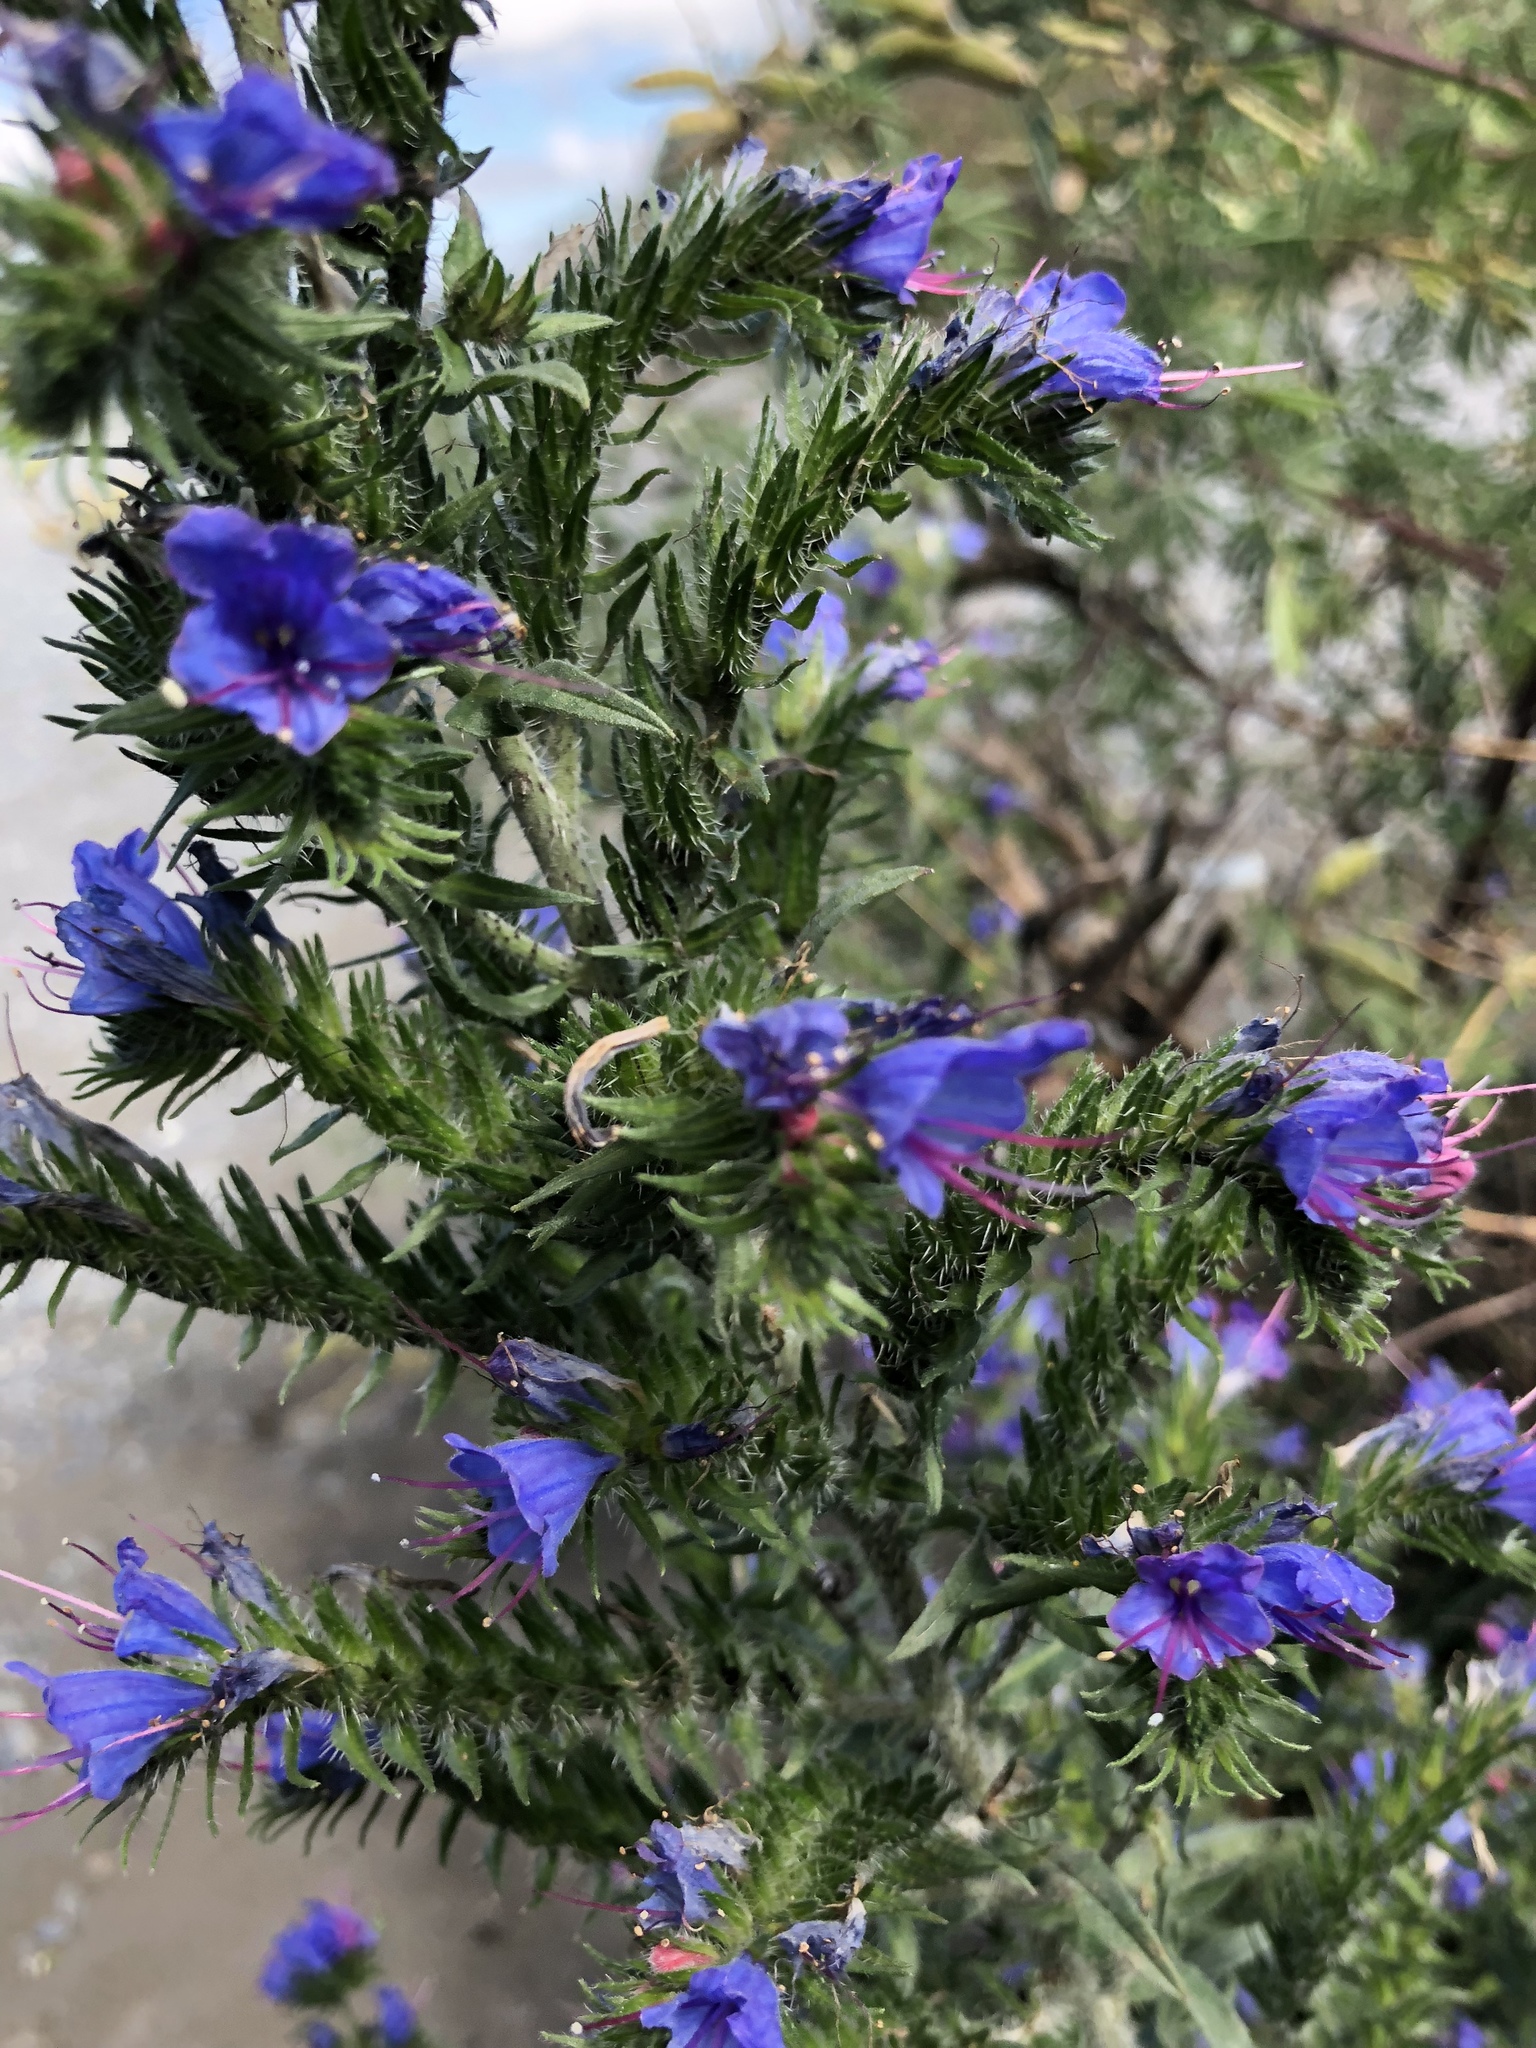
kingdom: Plantae
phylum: Tracheophyta
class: Magnoliopsida
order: Boraginales
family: Boraginaceae
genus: Echium
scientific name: Echium vulgare
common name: Common viper's bugloss
